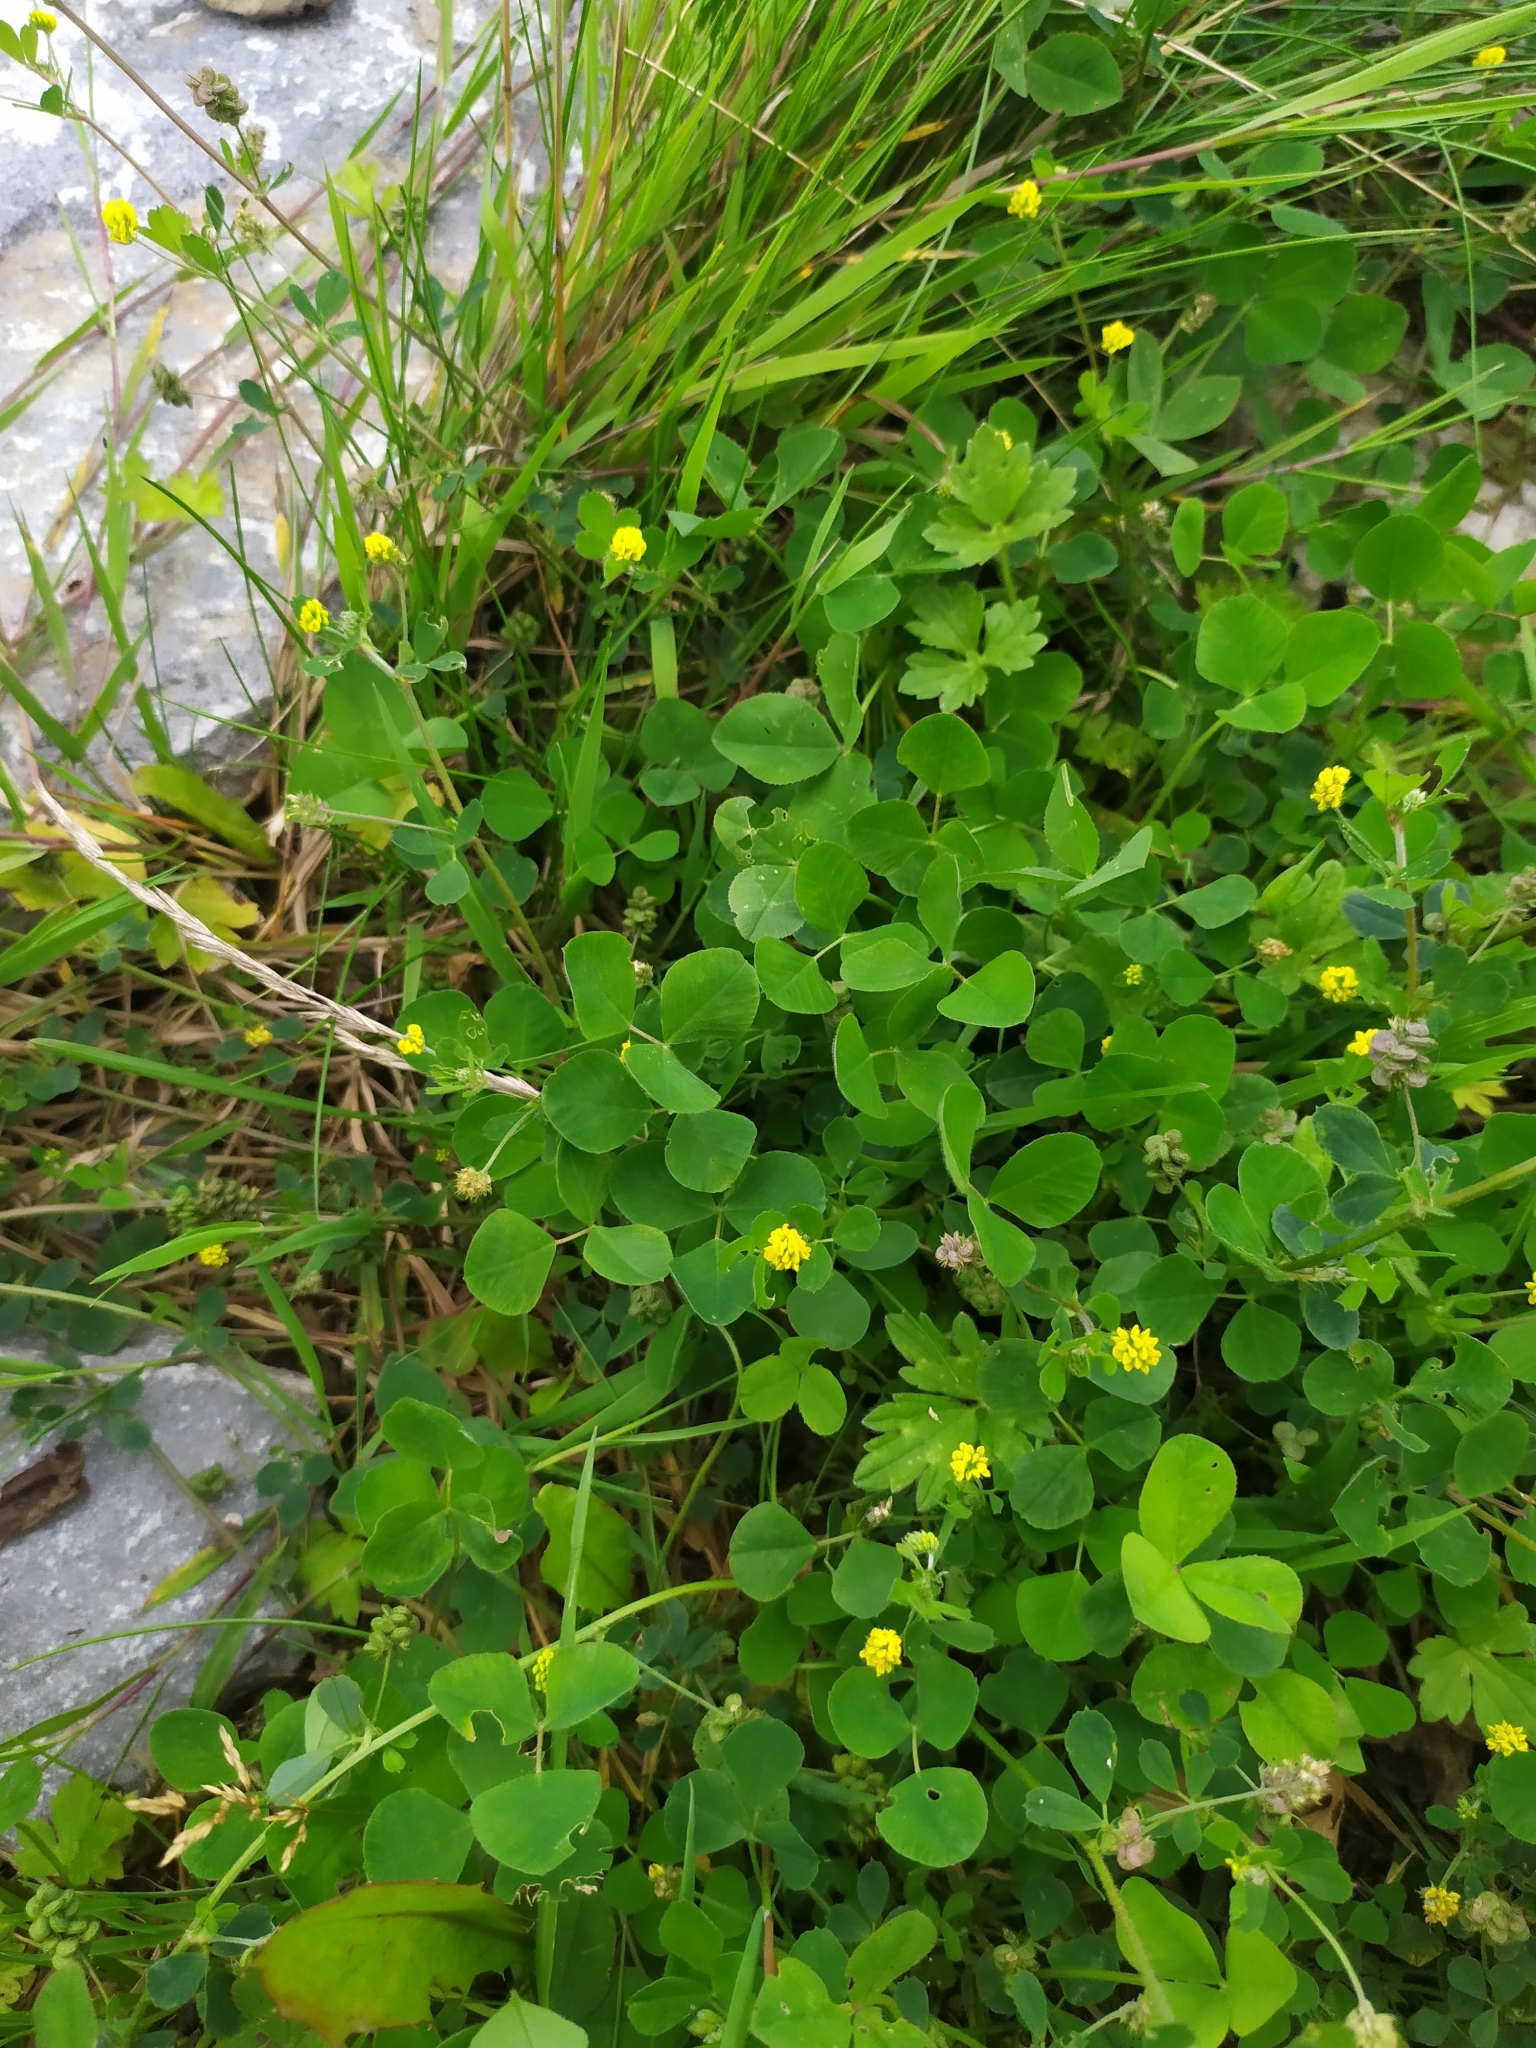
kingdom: Plantae
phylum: Tracheophyta
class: Magnoliopsida
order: Fabales
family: Fabaceae
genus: Medicago
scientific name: Medicago lupulina
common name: Black medick
